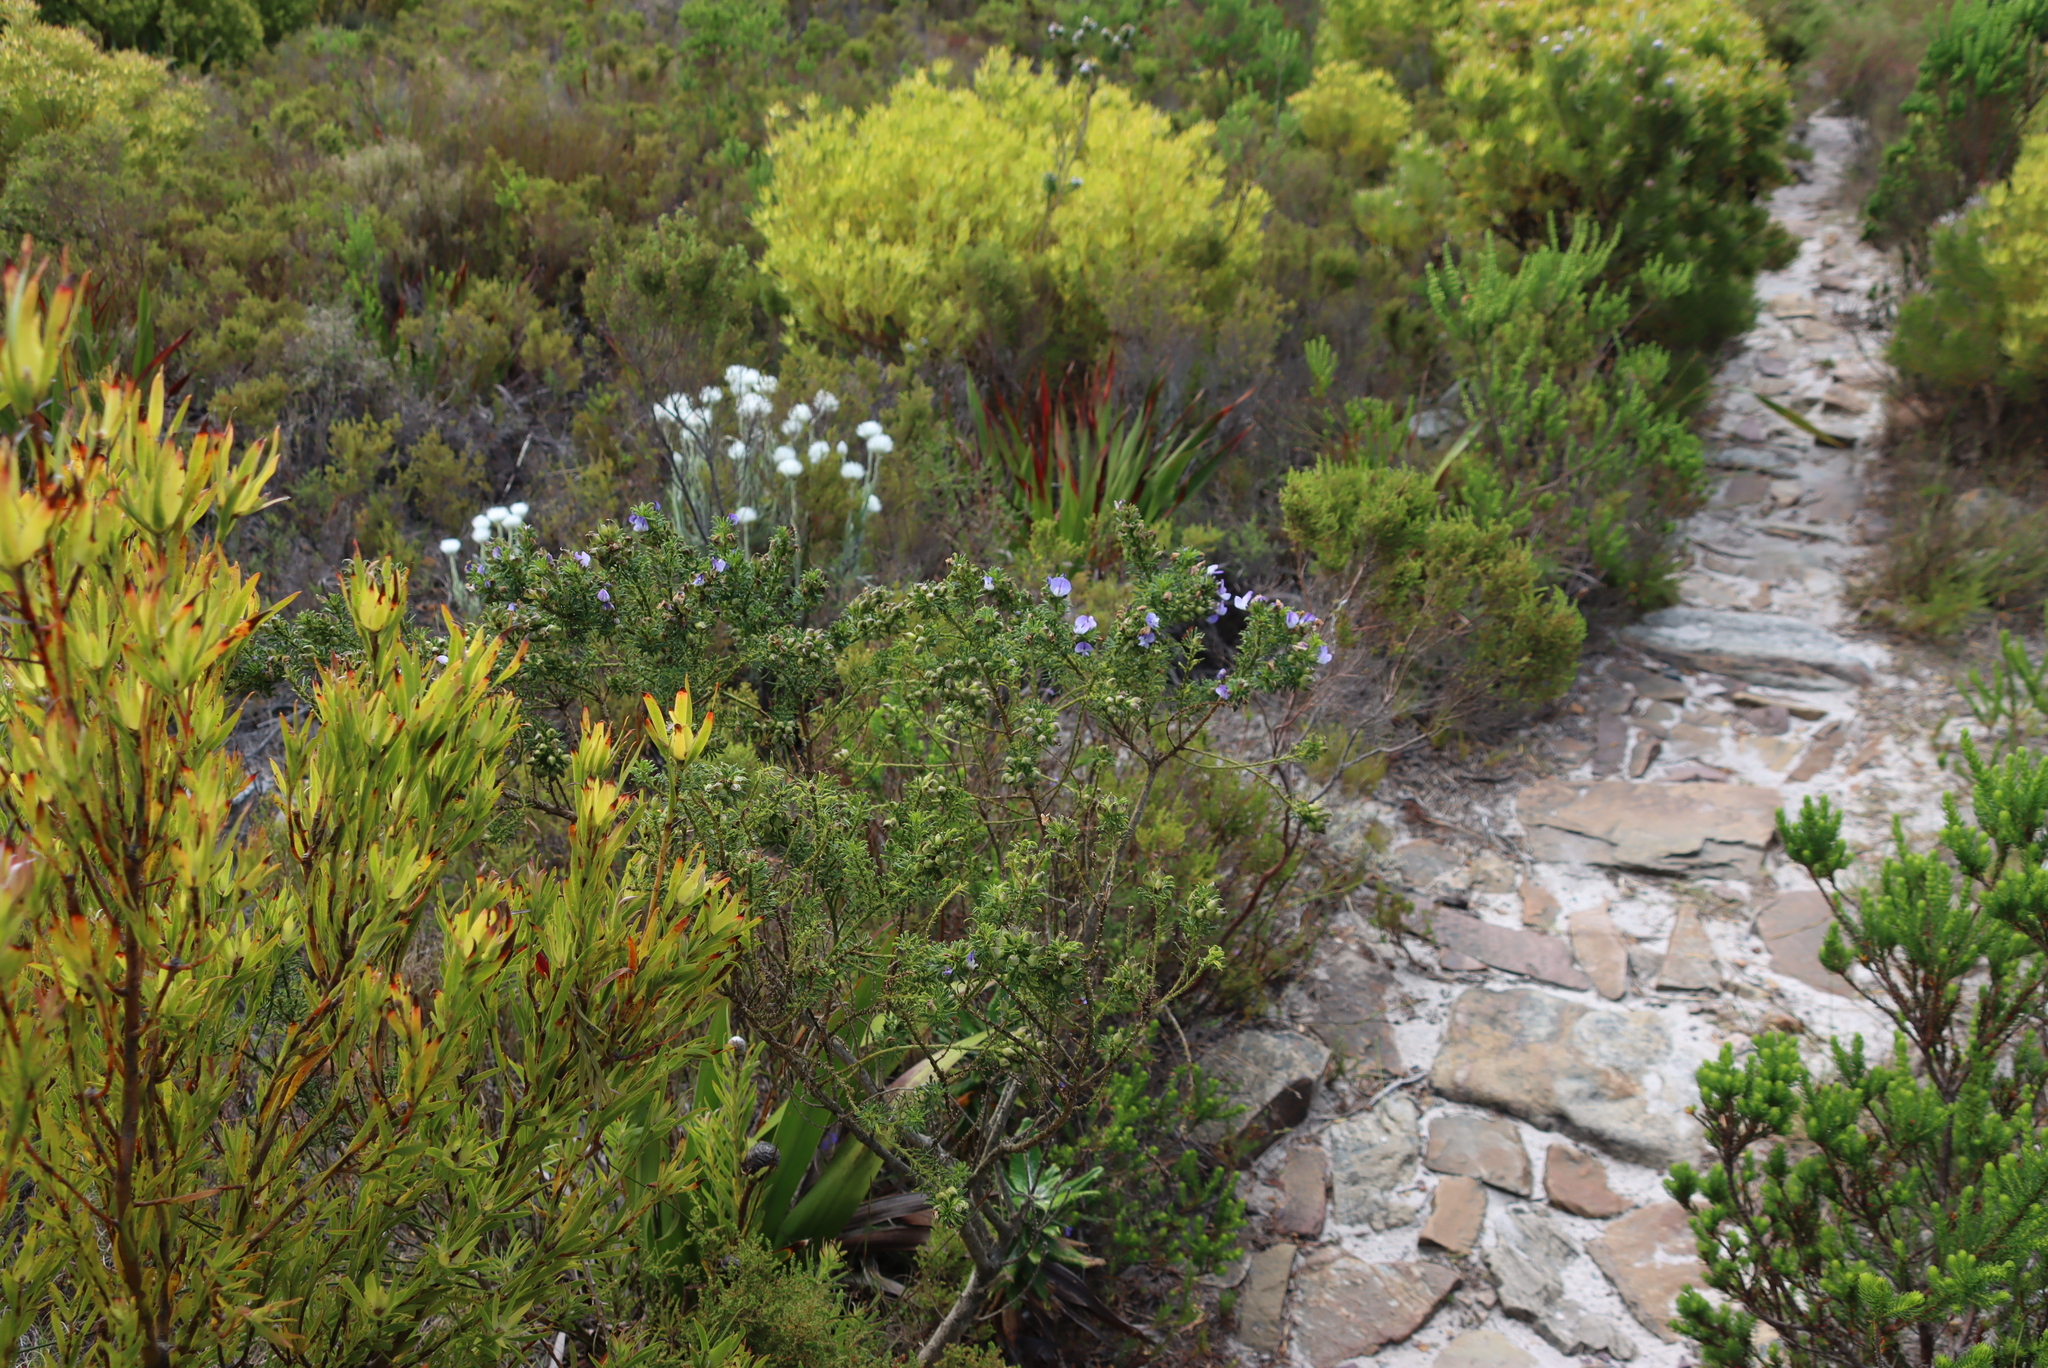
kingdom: Plantae
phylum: Tracheophyta
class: Magnoliopsida
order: Fabales
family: Fabaceae
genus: Psoralea
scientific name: Psoralea
